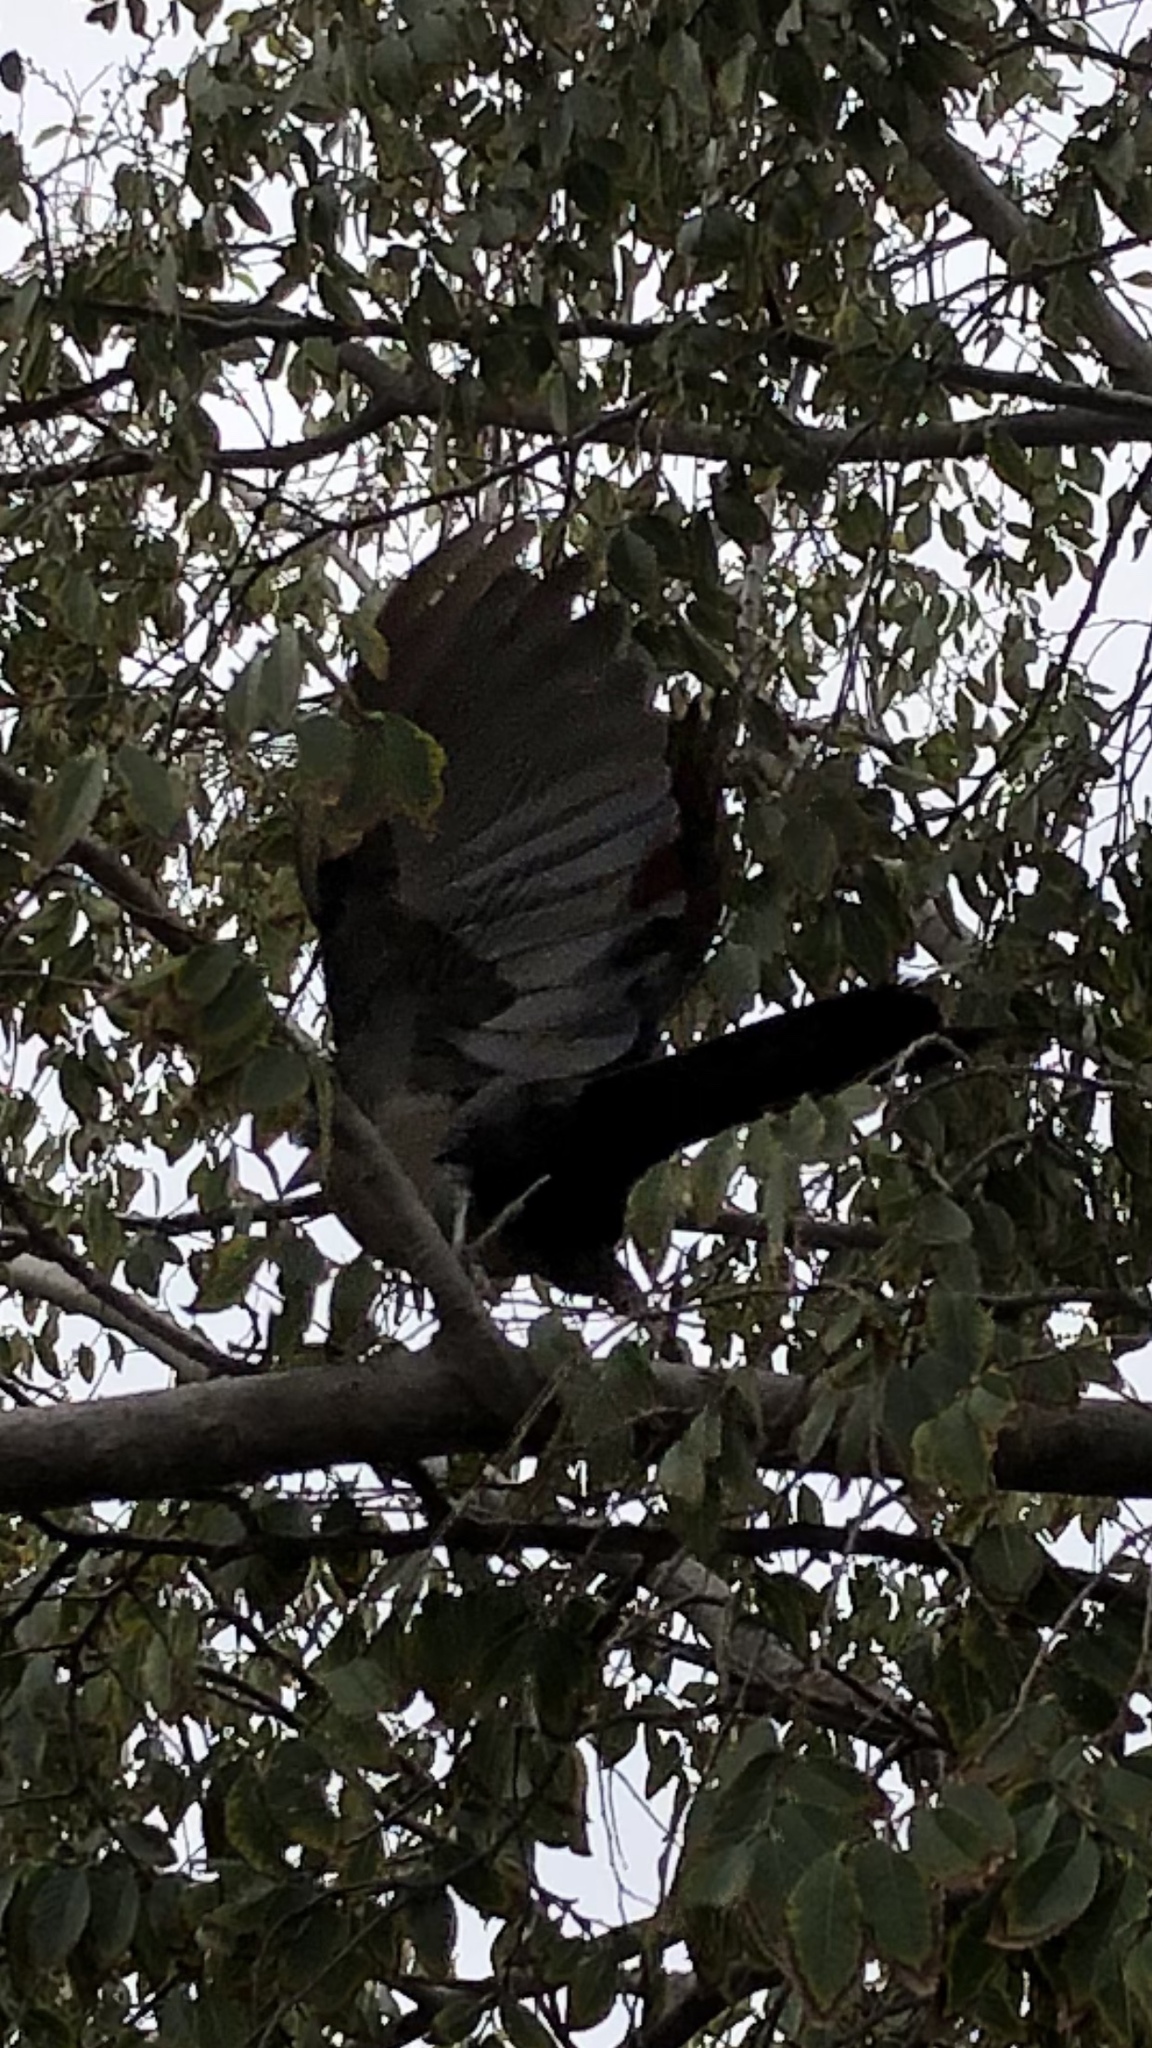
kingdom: Animalia
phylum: Chordata
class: Aves
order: Passeriformes
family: Icteridae
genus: Quiscalus
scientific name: Quiscalus mexicanus
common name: Great-tailed grackle
